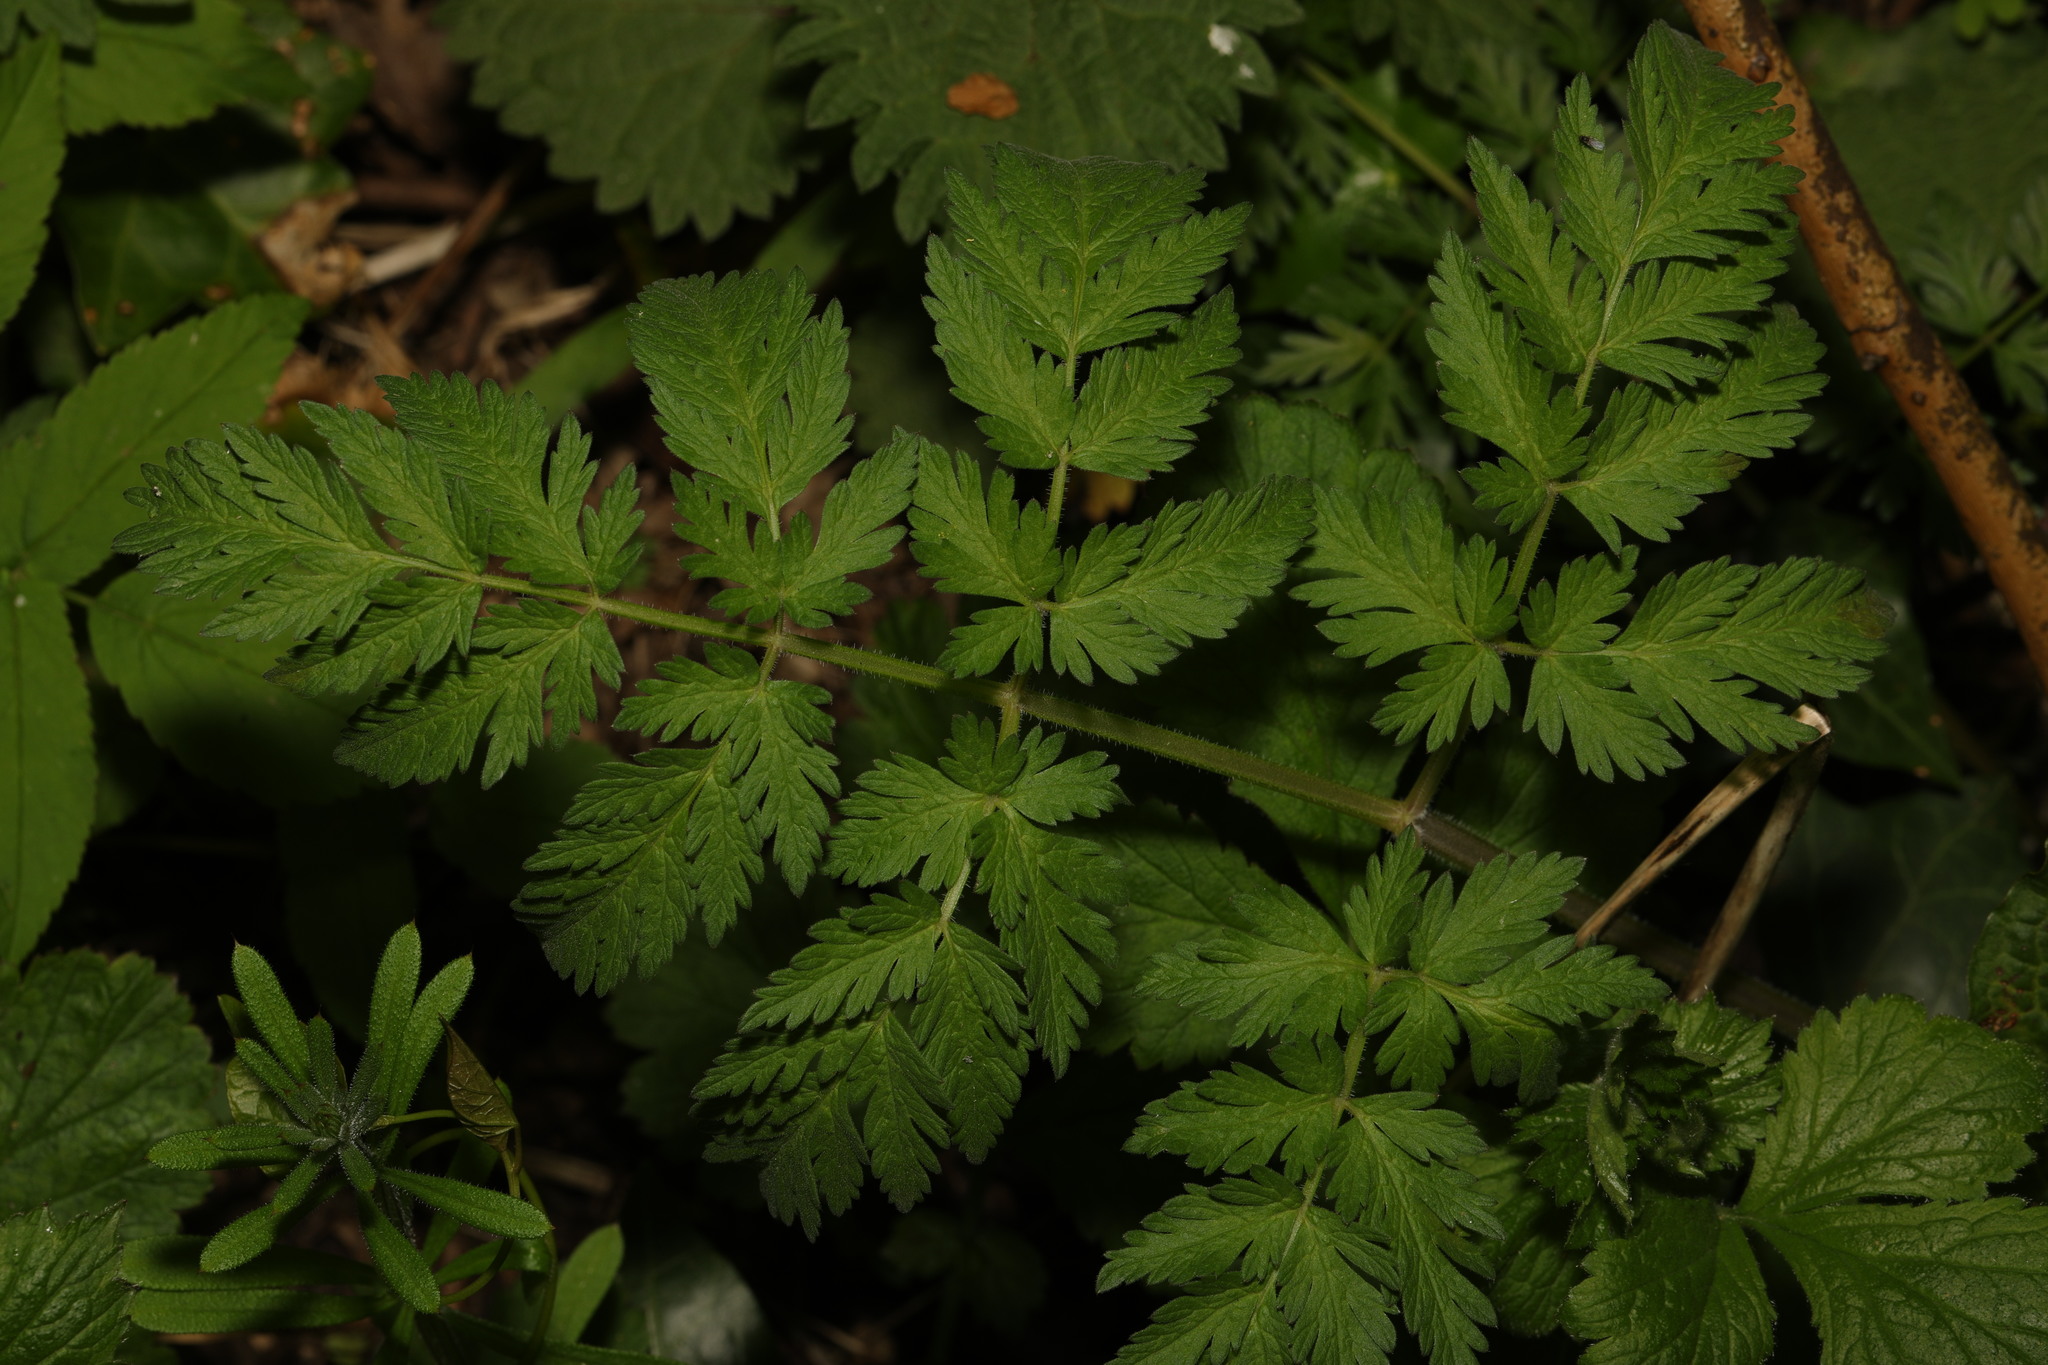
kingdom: Plantae
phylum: Tracheophyta
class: Magnoliopsida
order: Apiales
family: Apiaceae
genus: Anthriscus
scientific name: Anthriscus sylvestris
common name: Cow parsley
